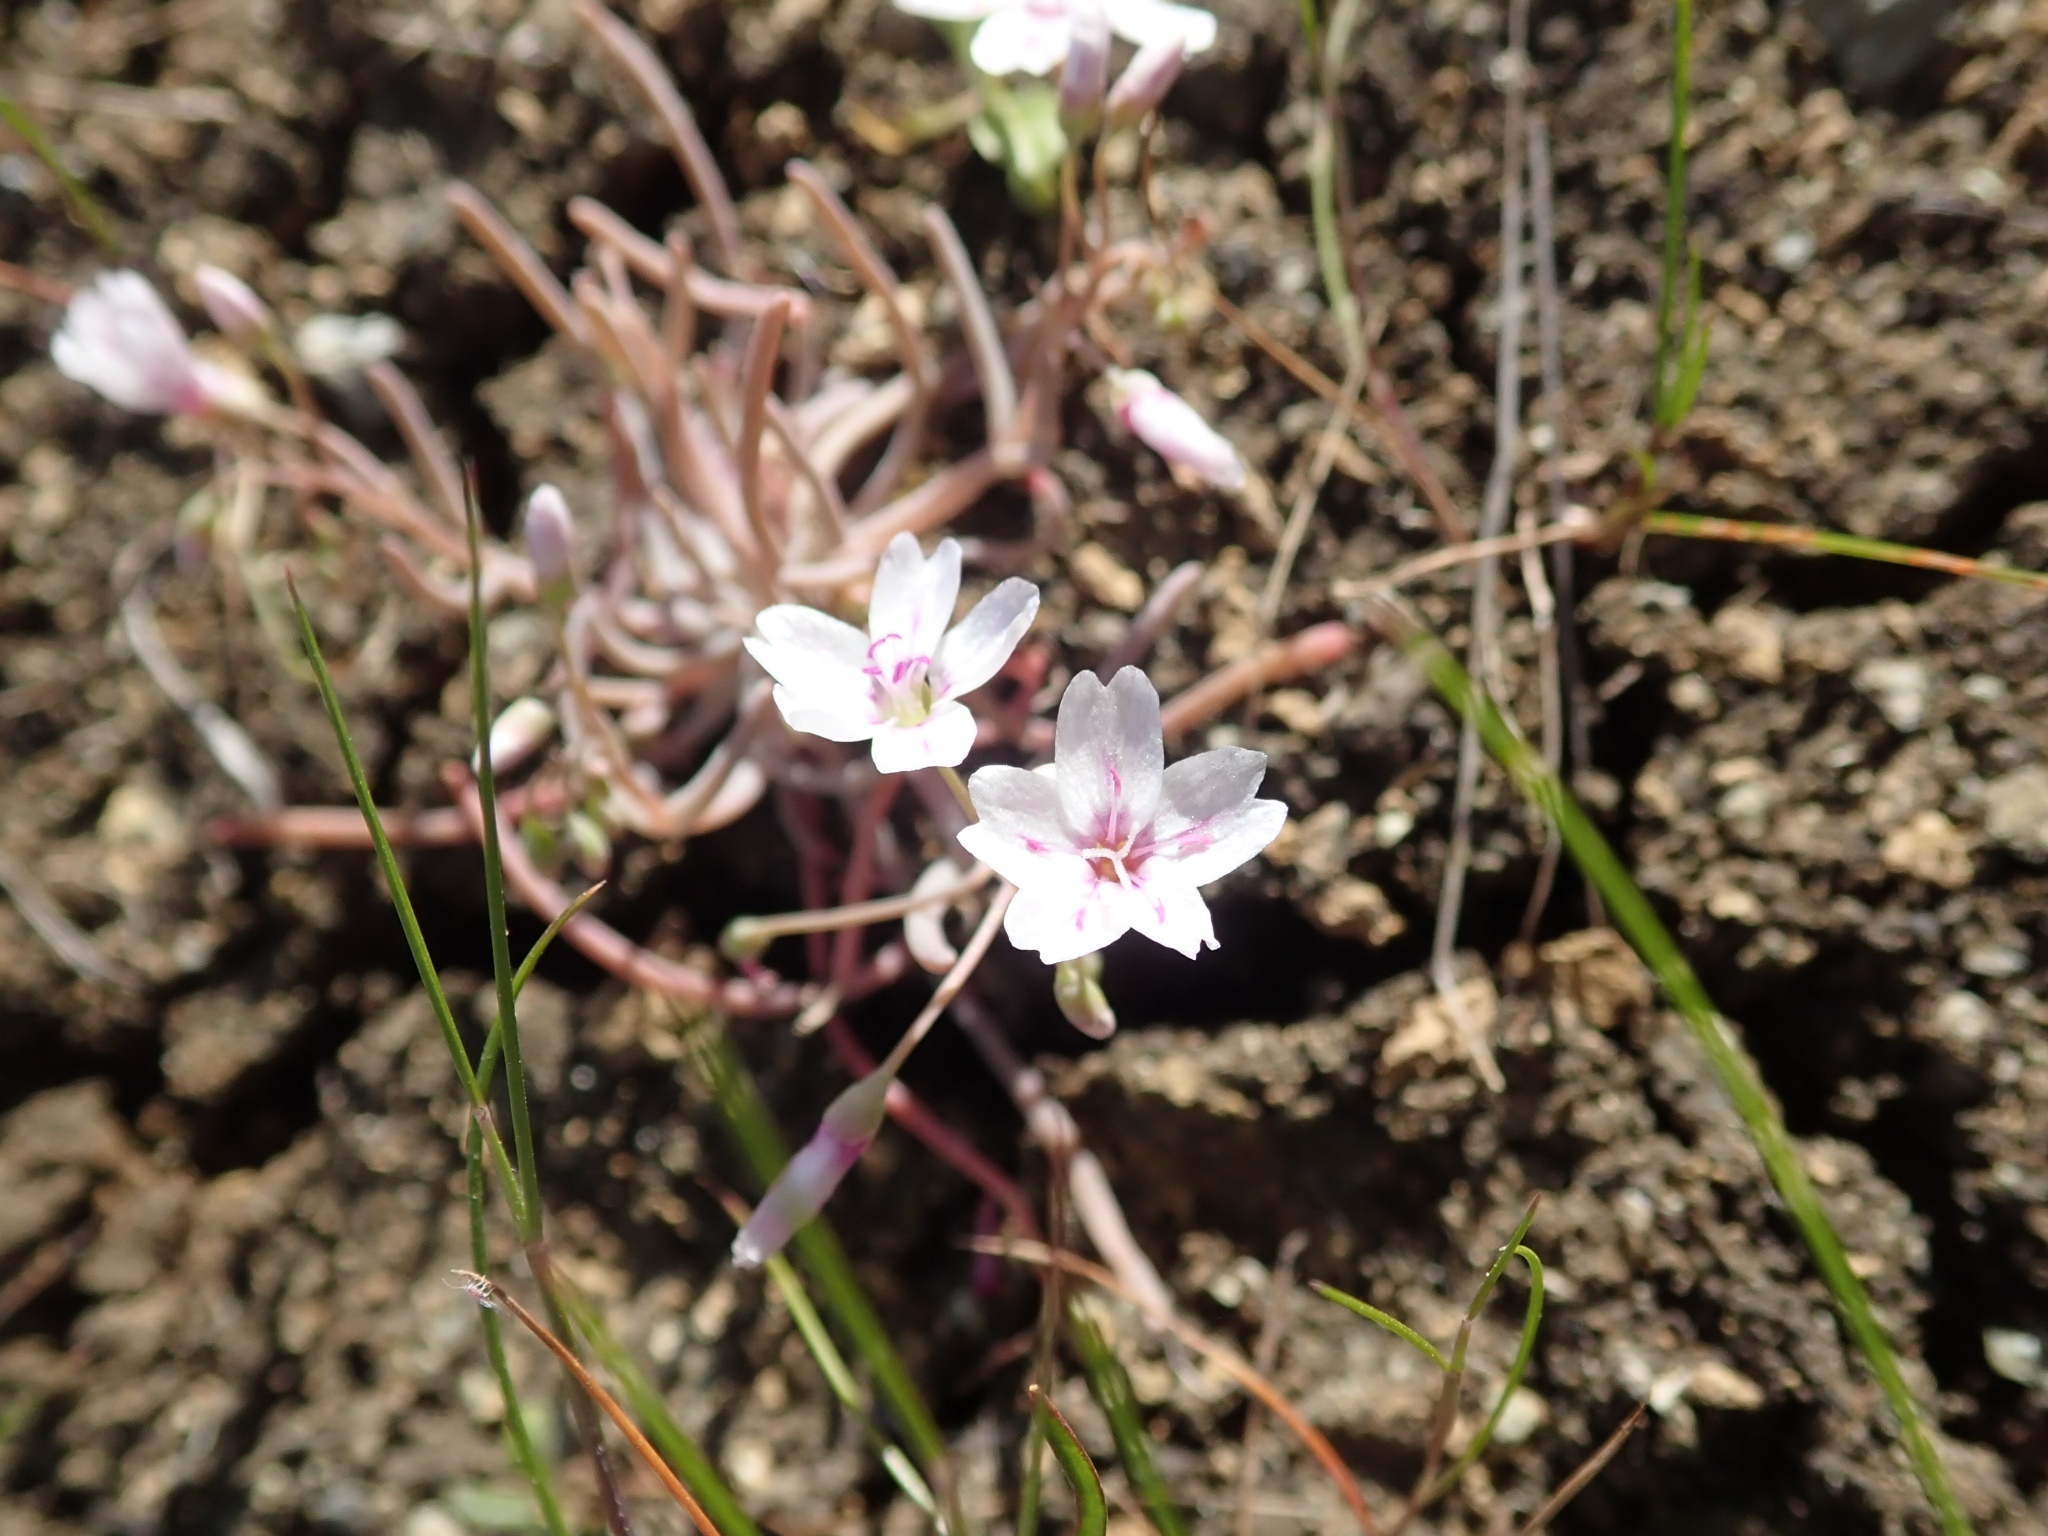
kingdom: Plantae
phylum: Tracheophyta
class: Magnoliopsida
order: Caryophyllales
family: Montiaceae
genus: Claytonia
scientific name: Claytonia gypsophiloides
